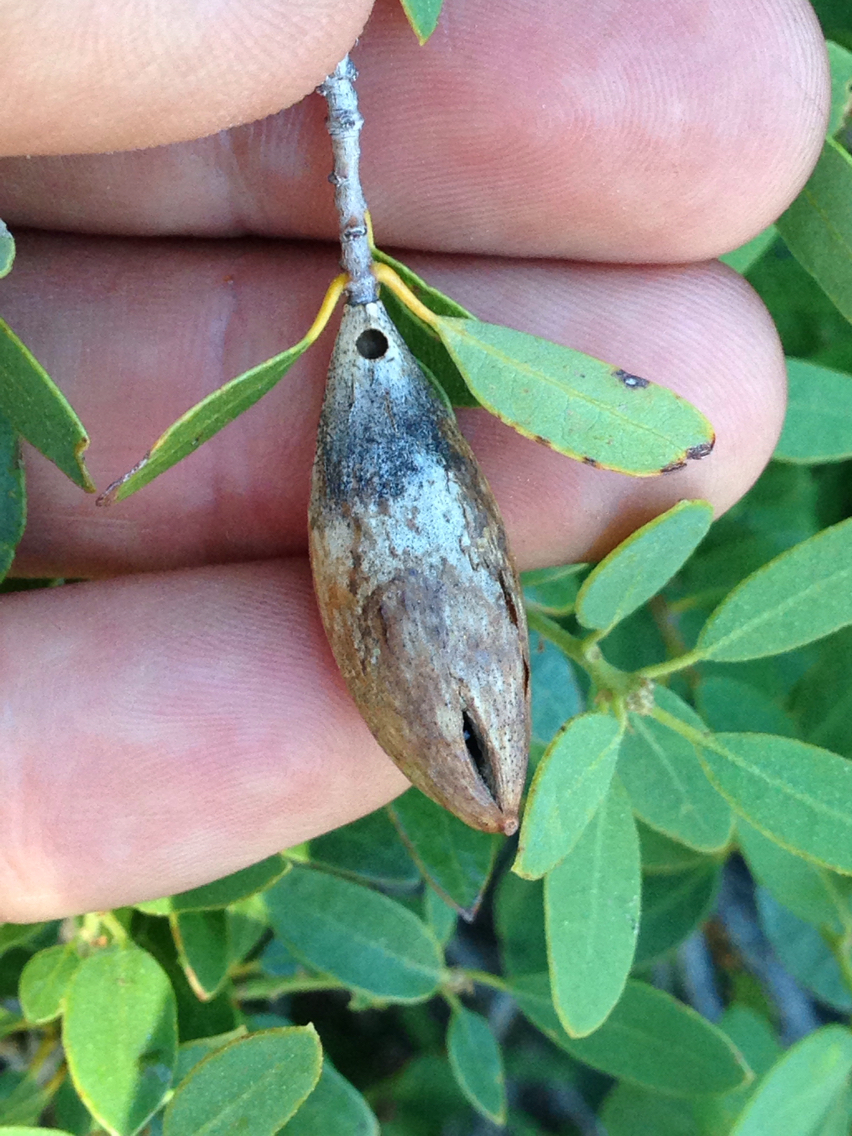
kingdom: Animalia
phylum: Arthropoda
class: Insecta
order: Hymenoptera
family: Cynipidae
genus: Heteroecus
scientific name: Heteroecus pacificus
